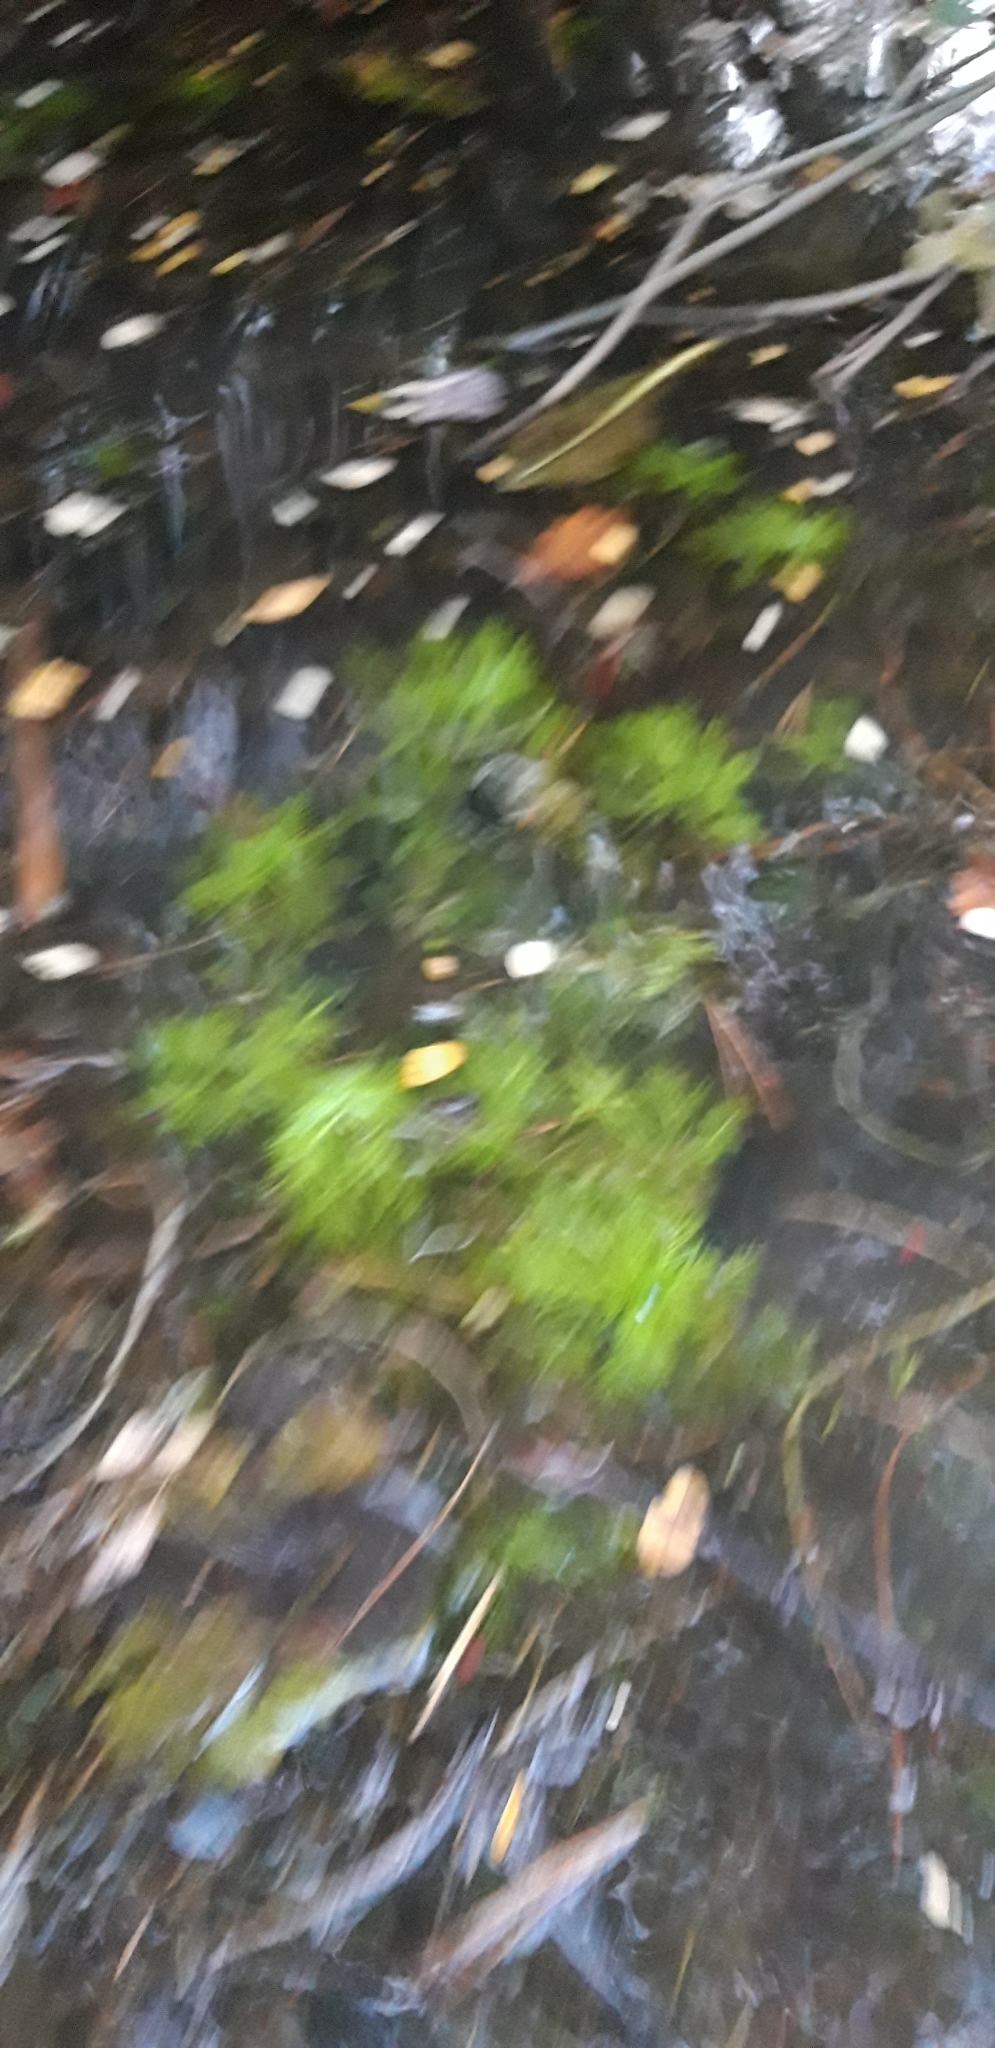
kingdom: Plantae
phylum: Tracheophyta
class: Magnoliopsida
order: Ericales
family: Primulaceae
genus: Hottonia
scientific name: Hottonia palustris
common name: Water-violet
